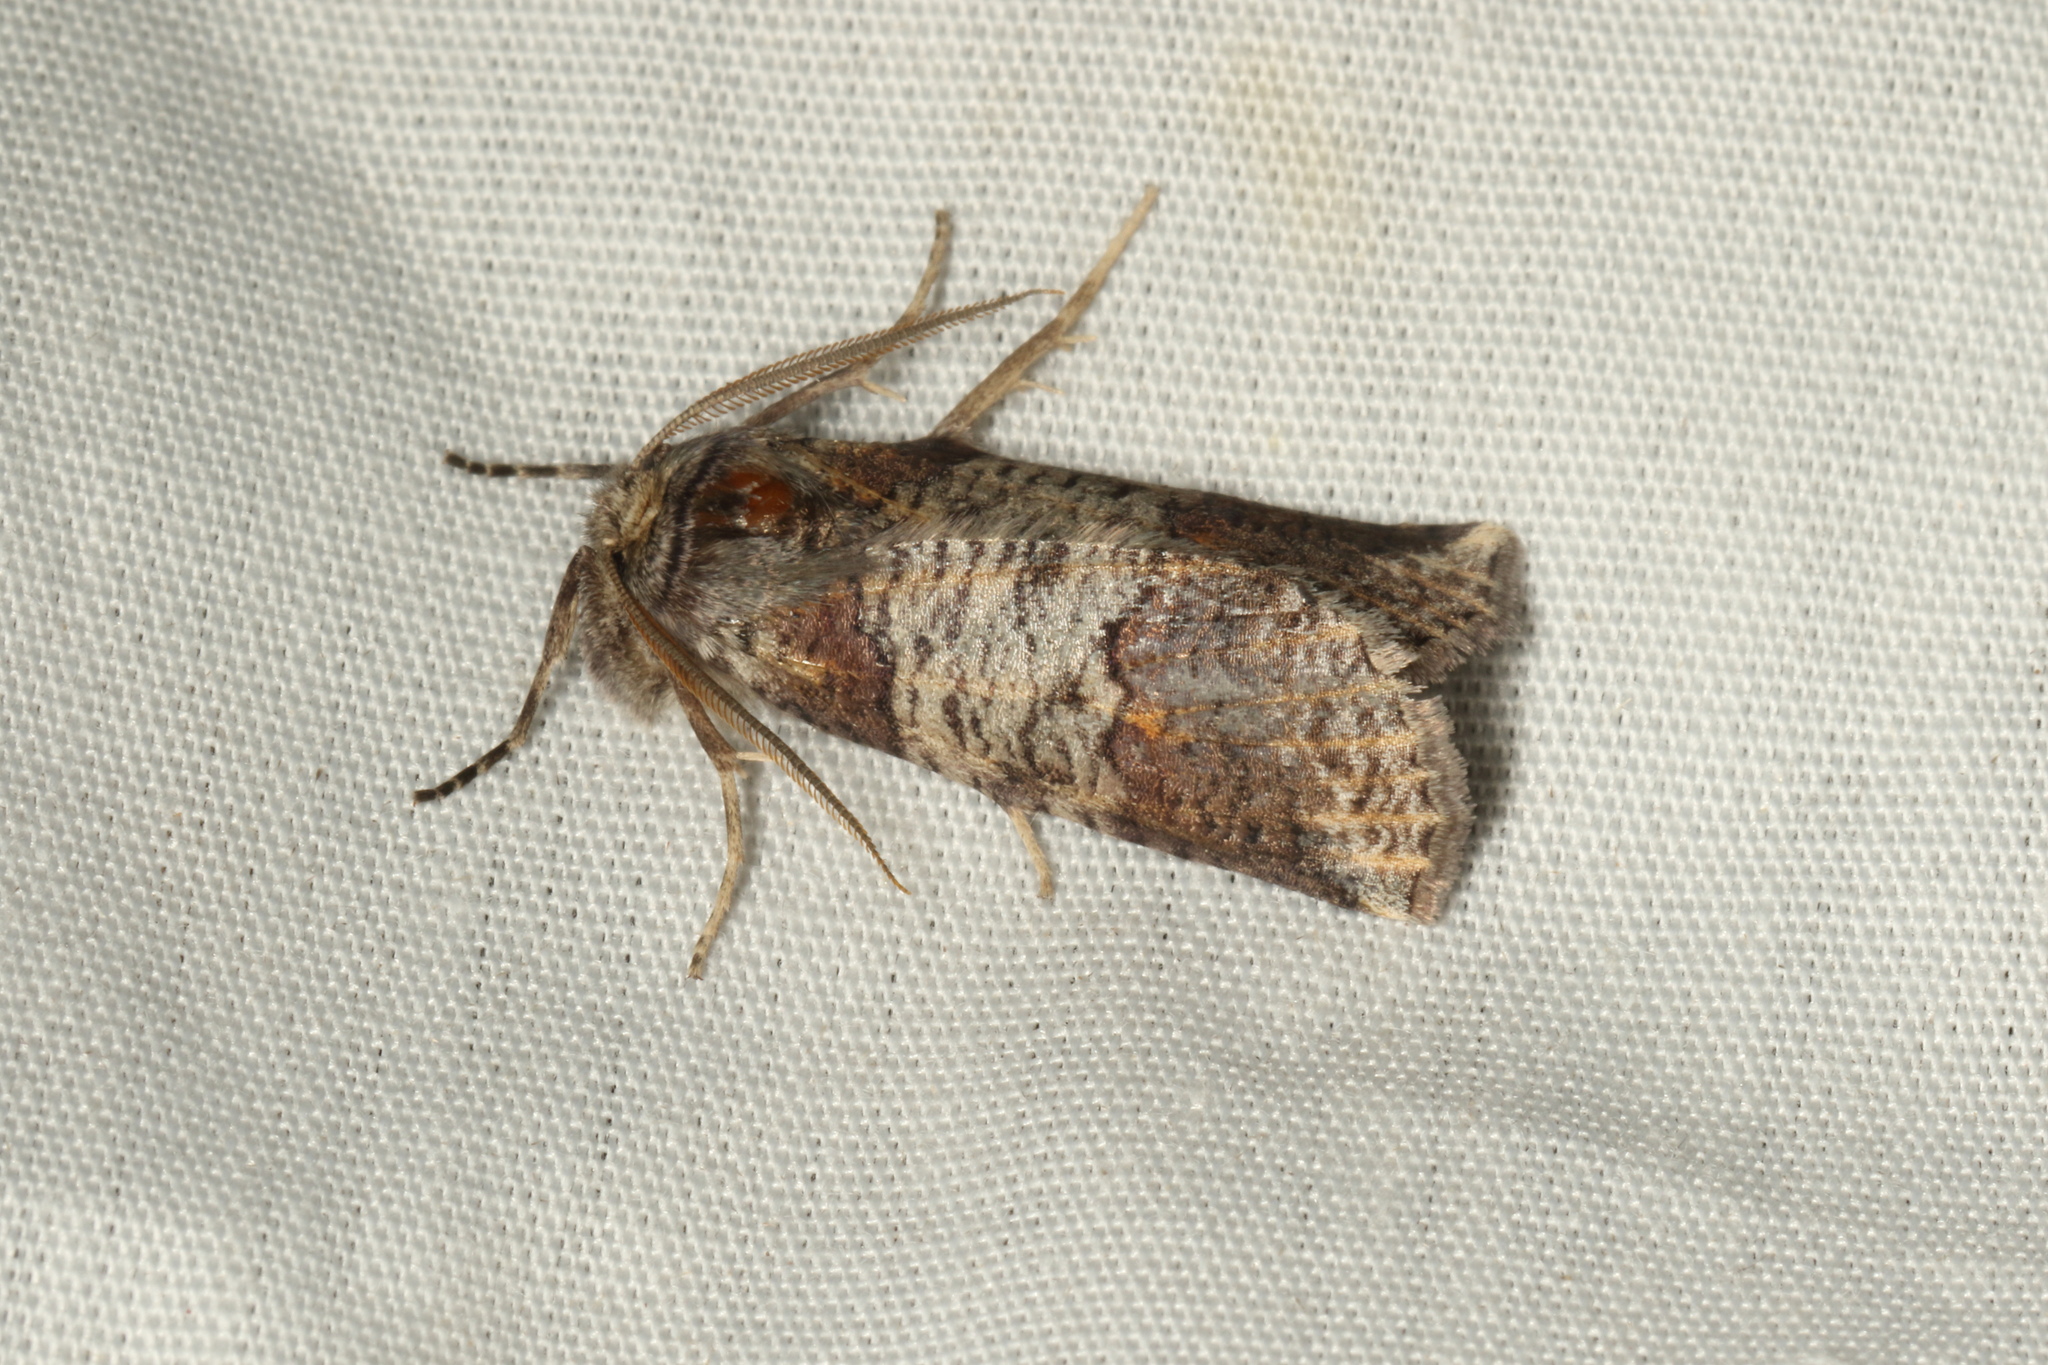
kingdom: Animalia
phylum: Arthropoda
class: Insecta
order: Lepidoptera
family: Geometridae
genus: Declana
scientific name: Declana
